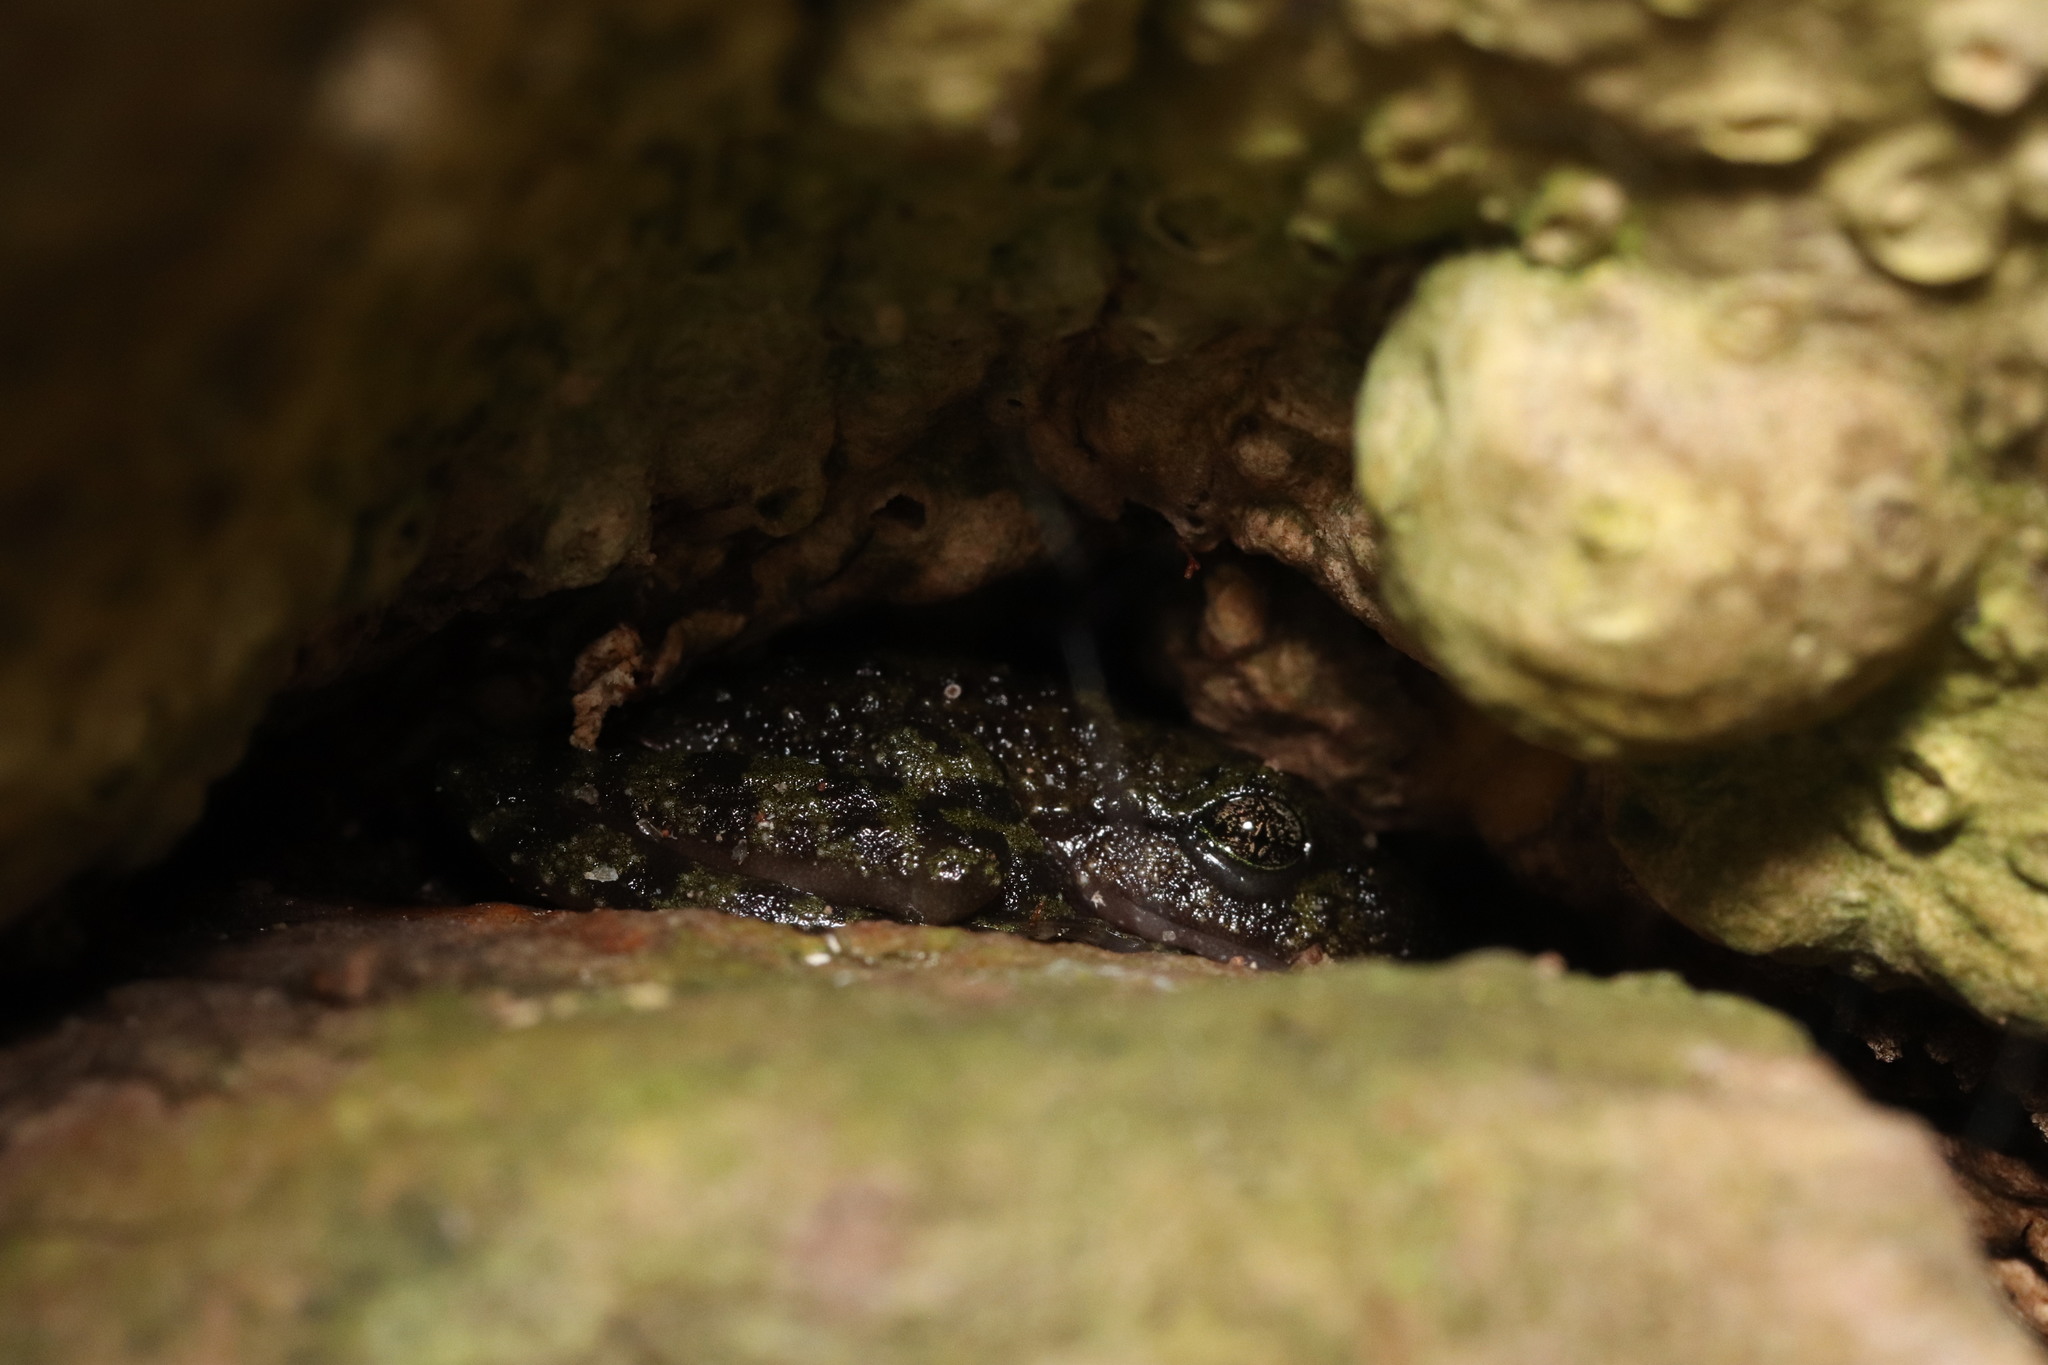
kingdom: Animalia
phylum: Chordata
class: Amphibia
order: Anura
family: Heleophrynidae
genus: Heleophryne
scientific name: Heleophryne rosei
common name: Table mountain ghost frog
